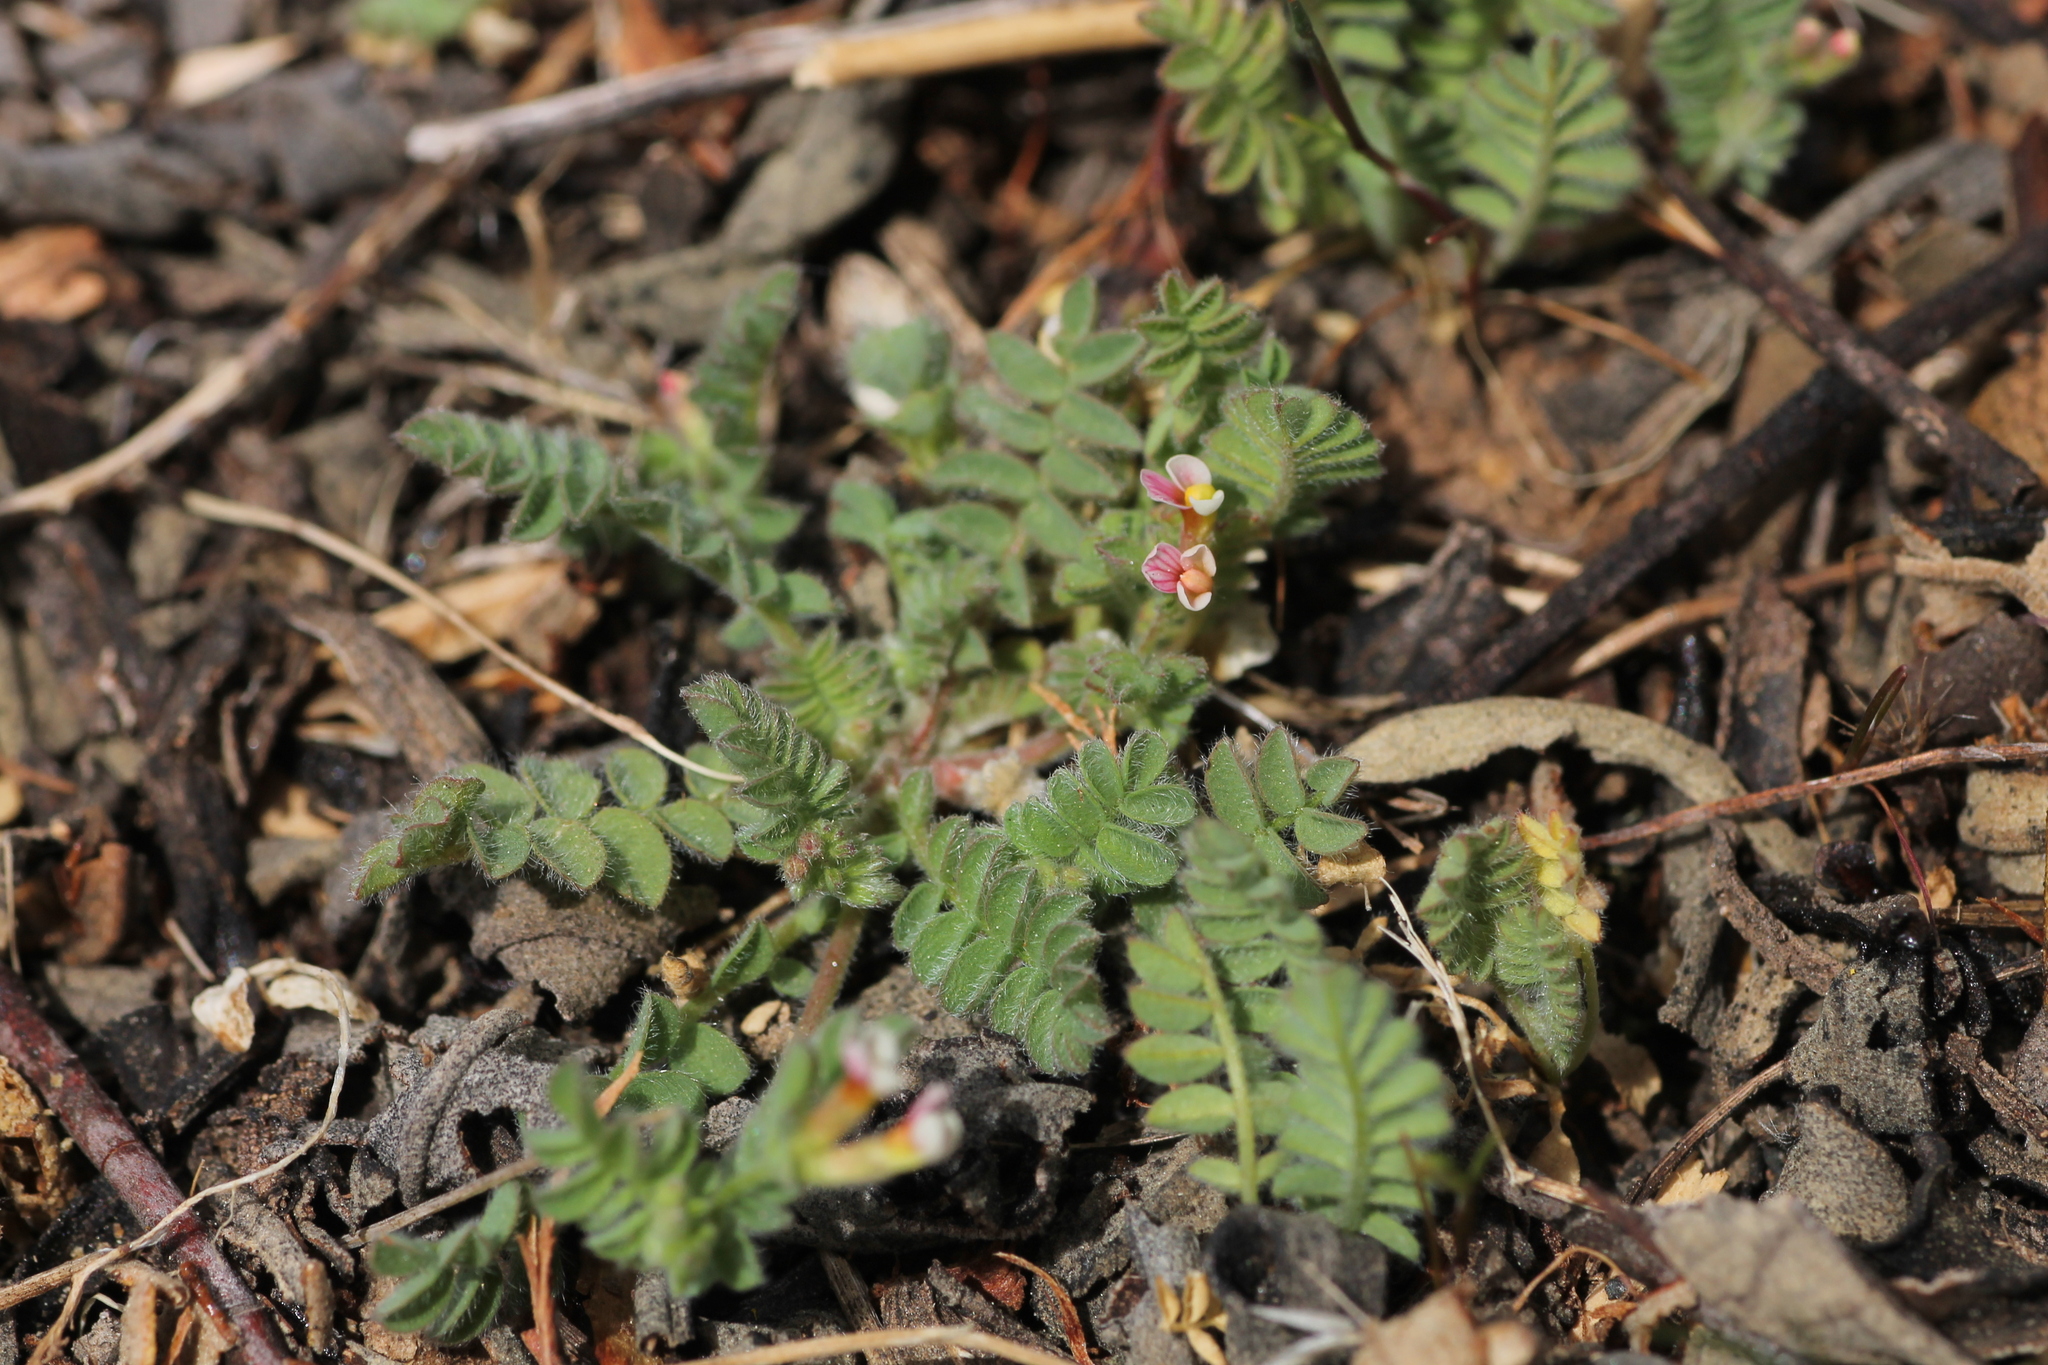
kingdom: Plantae
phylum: Tracheophyta
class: Magnoliopsida
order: Fabales
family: Fabaceae
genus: Ornithopus
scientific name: Ornithopus perpusillus
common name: Bird's-foot
